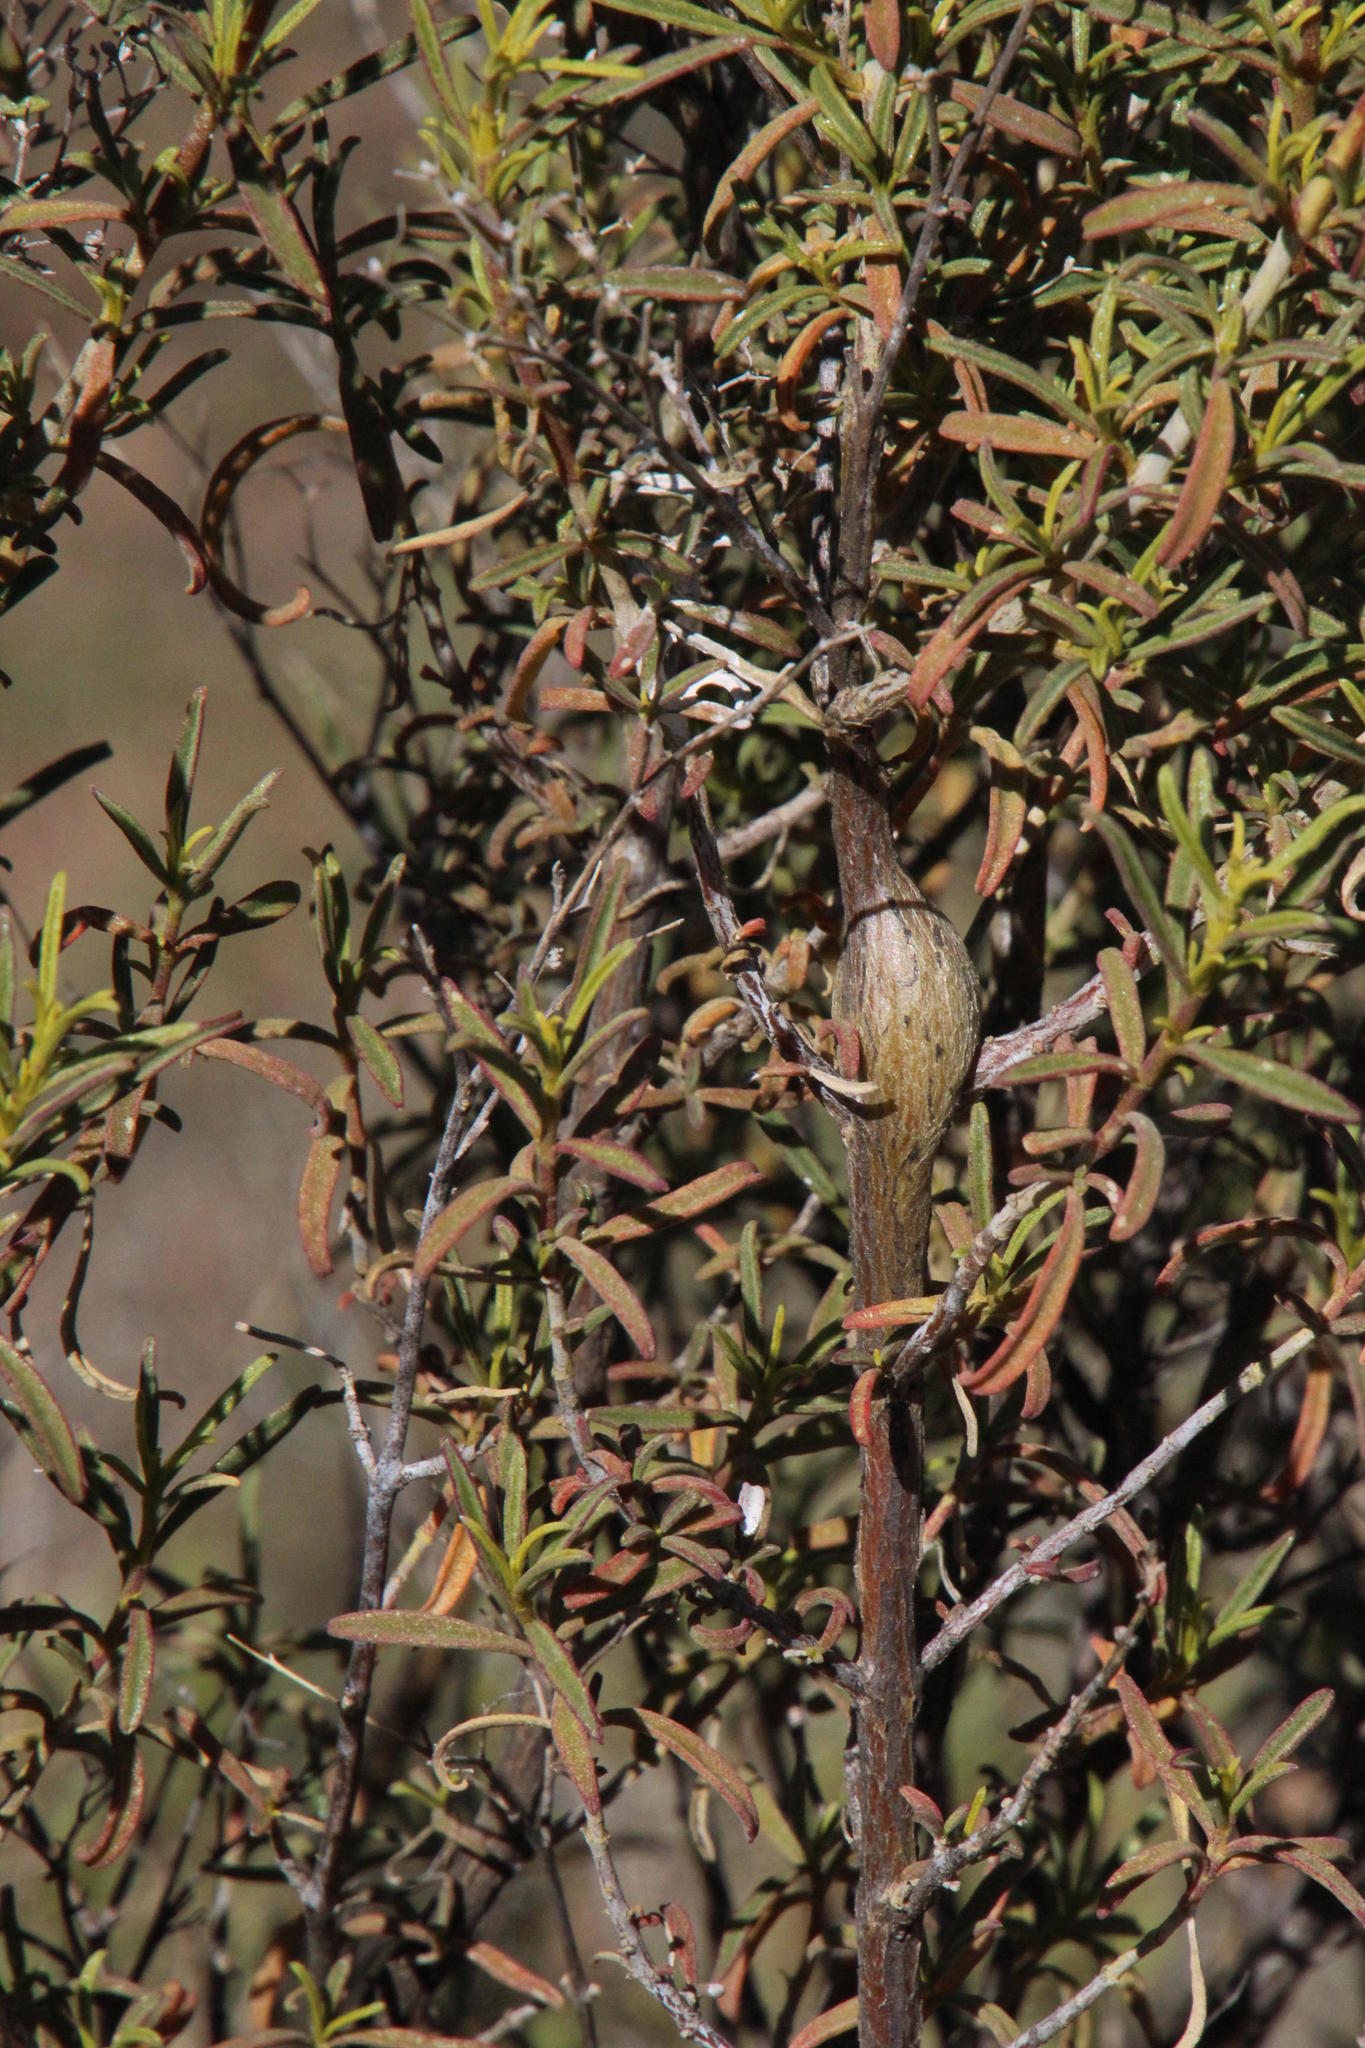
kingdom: Animalia
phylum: Arthropoda
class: Insecta
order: Coleoptera
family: Anthribidae
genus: Urodontus
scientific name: Urodontus
